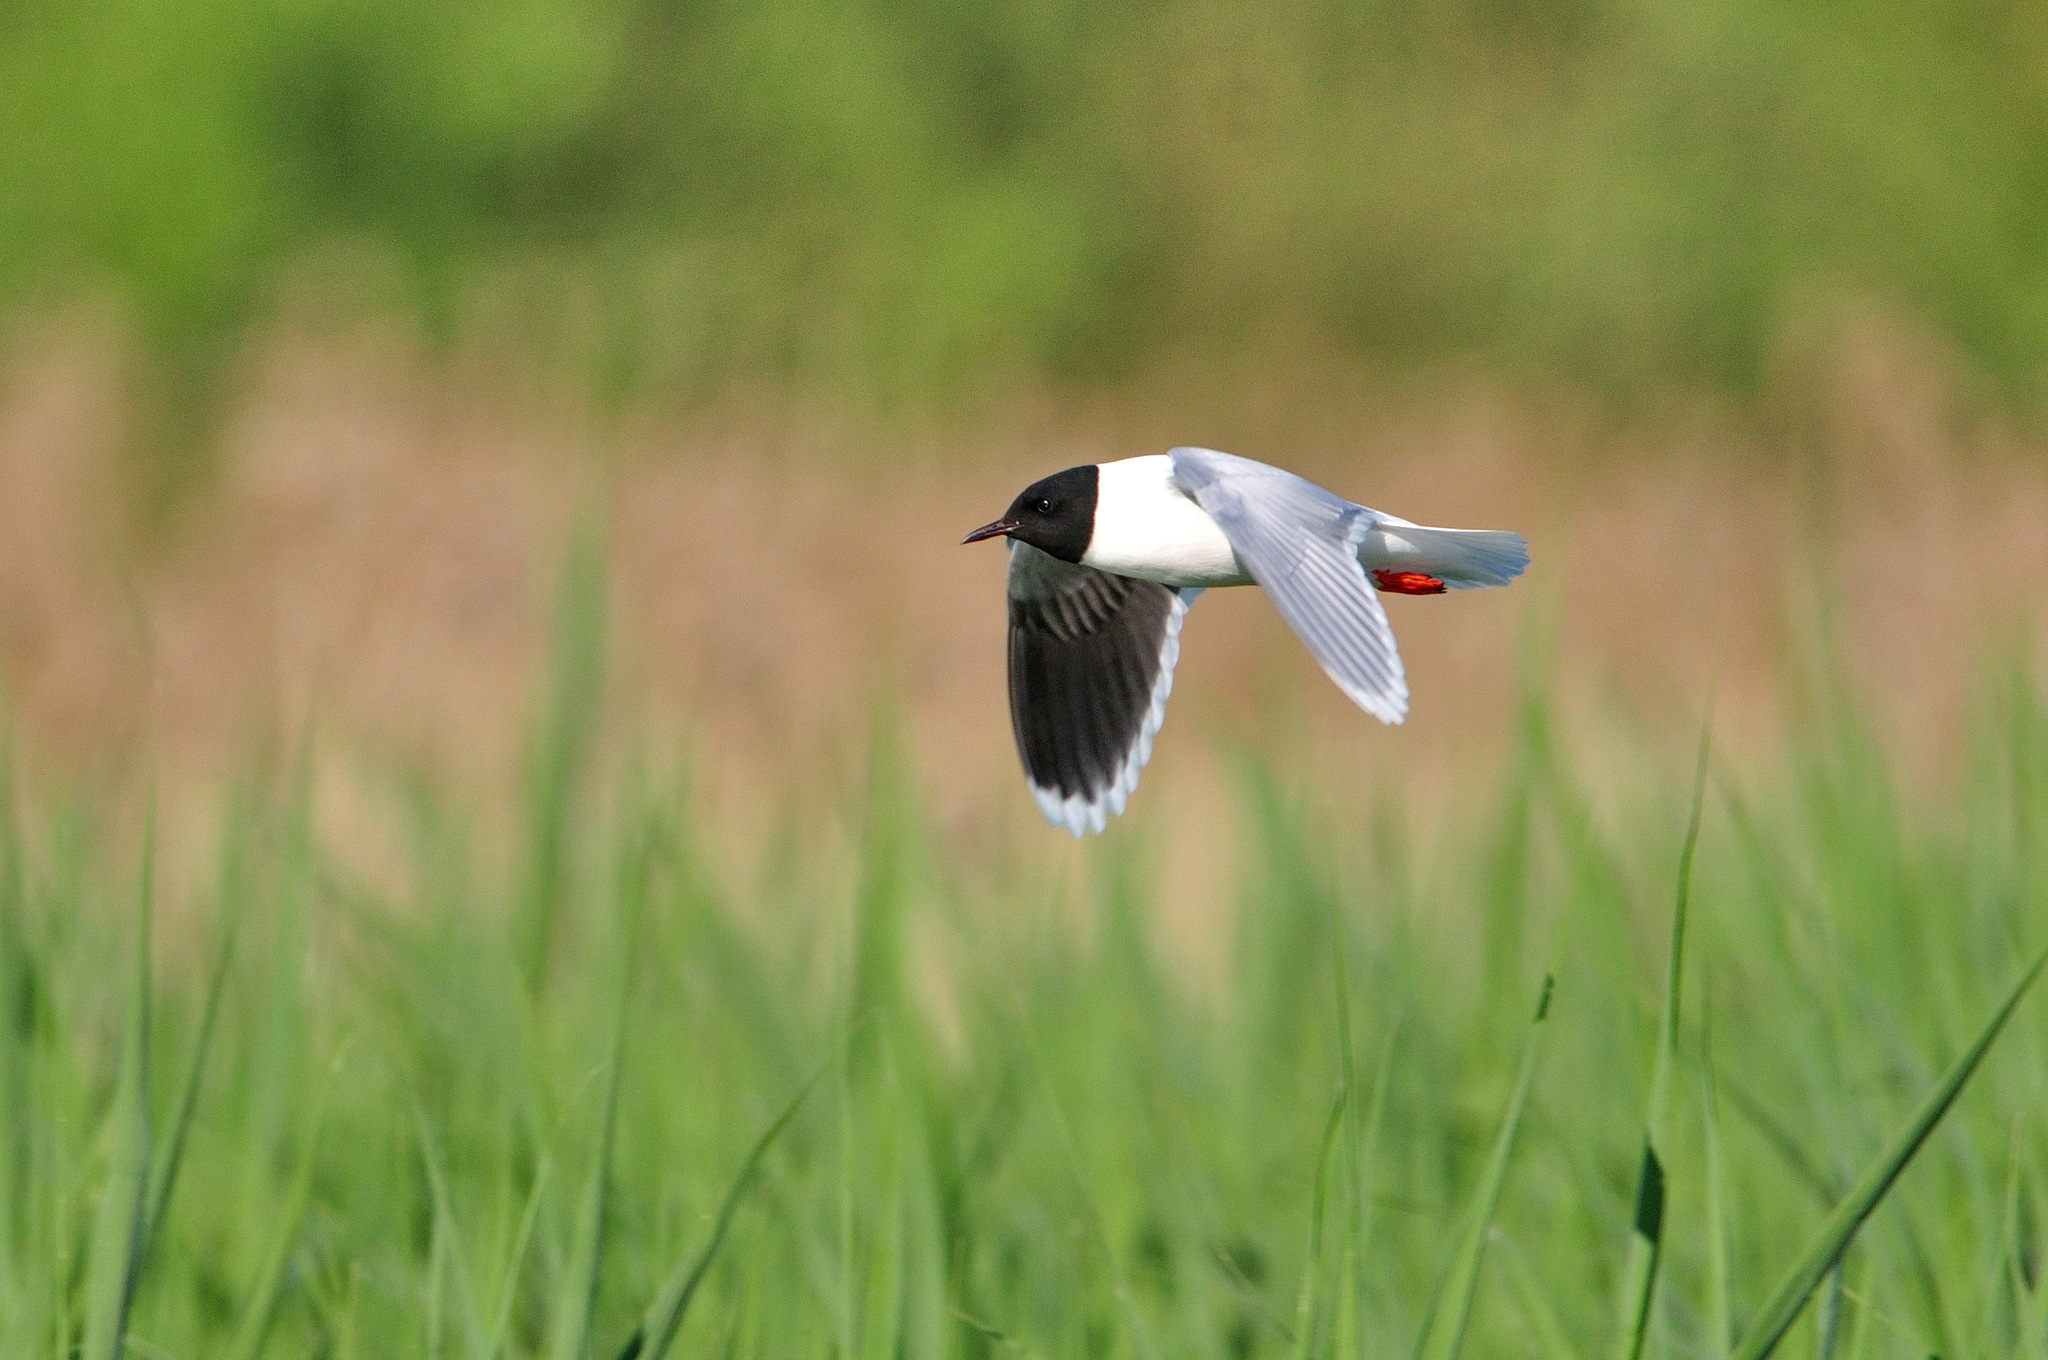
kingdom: Animalia
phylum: Chordata
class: Aves
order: Charadriiformes
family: Laridae
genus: Hydrocoloeus
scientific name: Hydrocoloeus minutus
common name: Little gull
